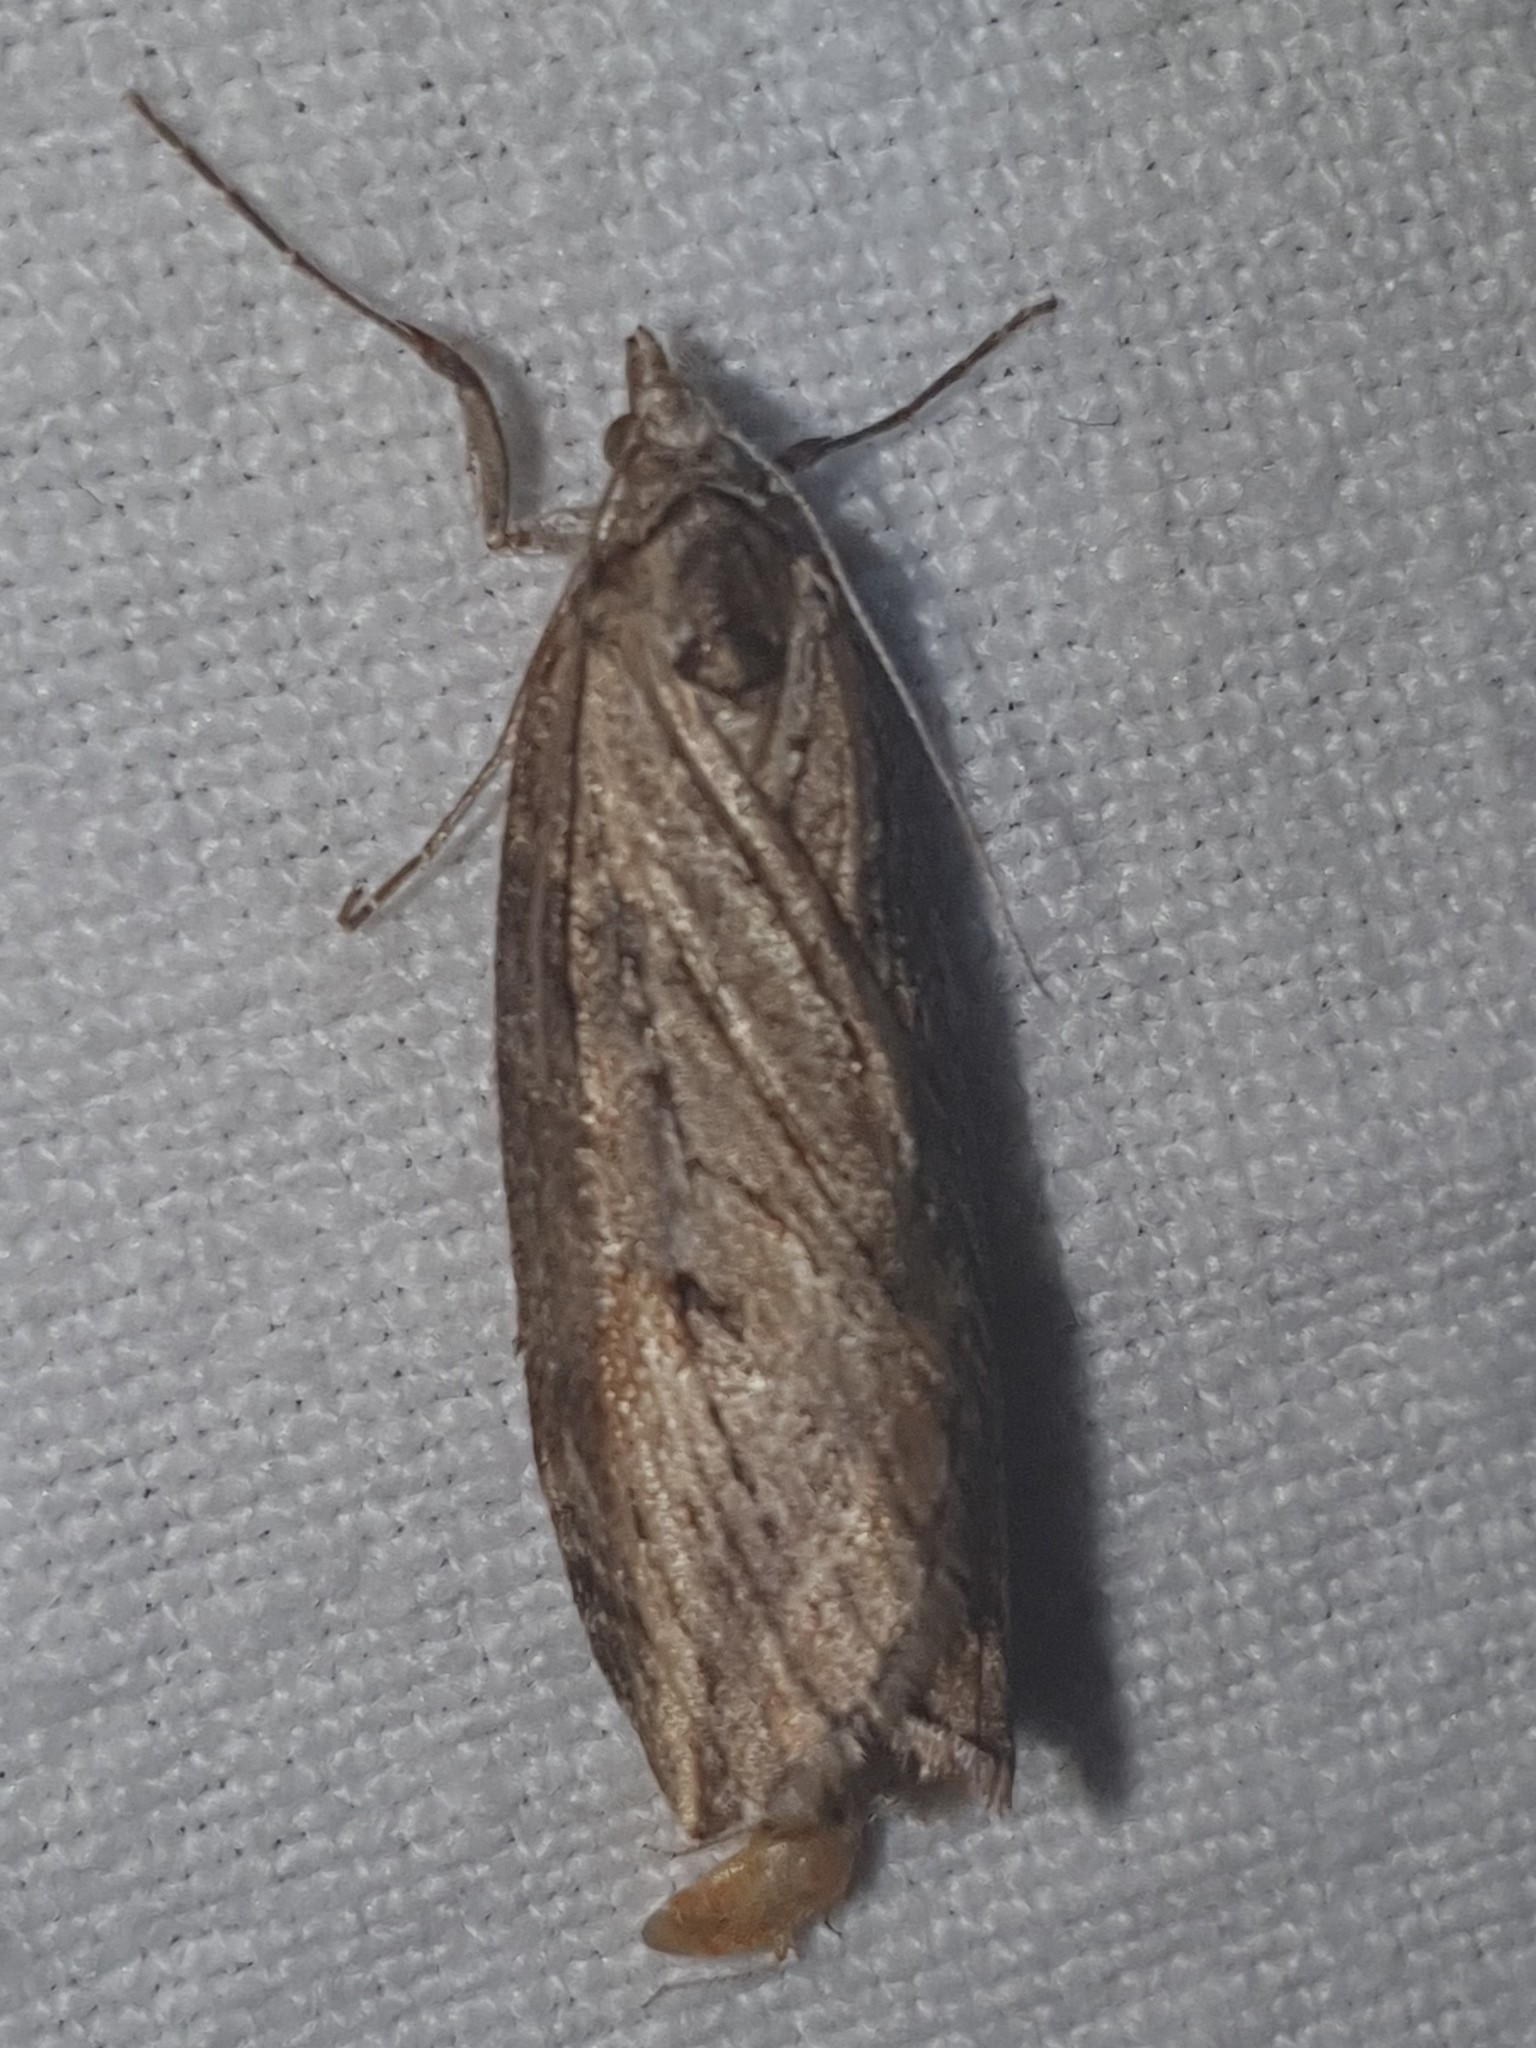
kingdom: Animalia
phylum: Arthropoda
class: Insecta
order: Lepidoptera
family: Geometridae
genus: Chesias
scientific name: Chesias isabella
